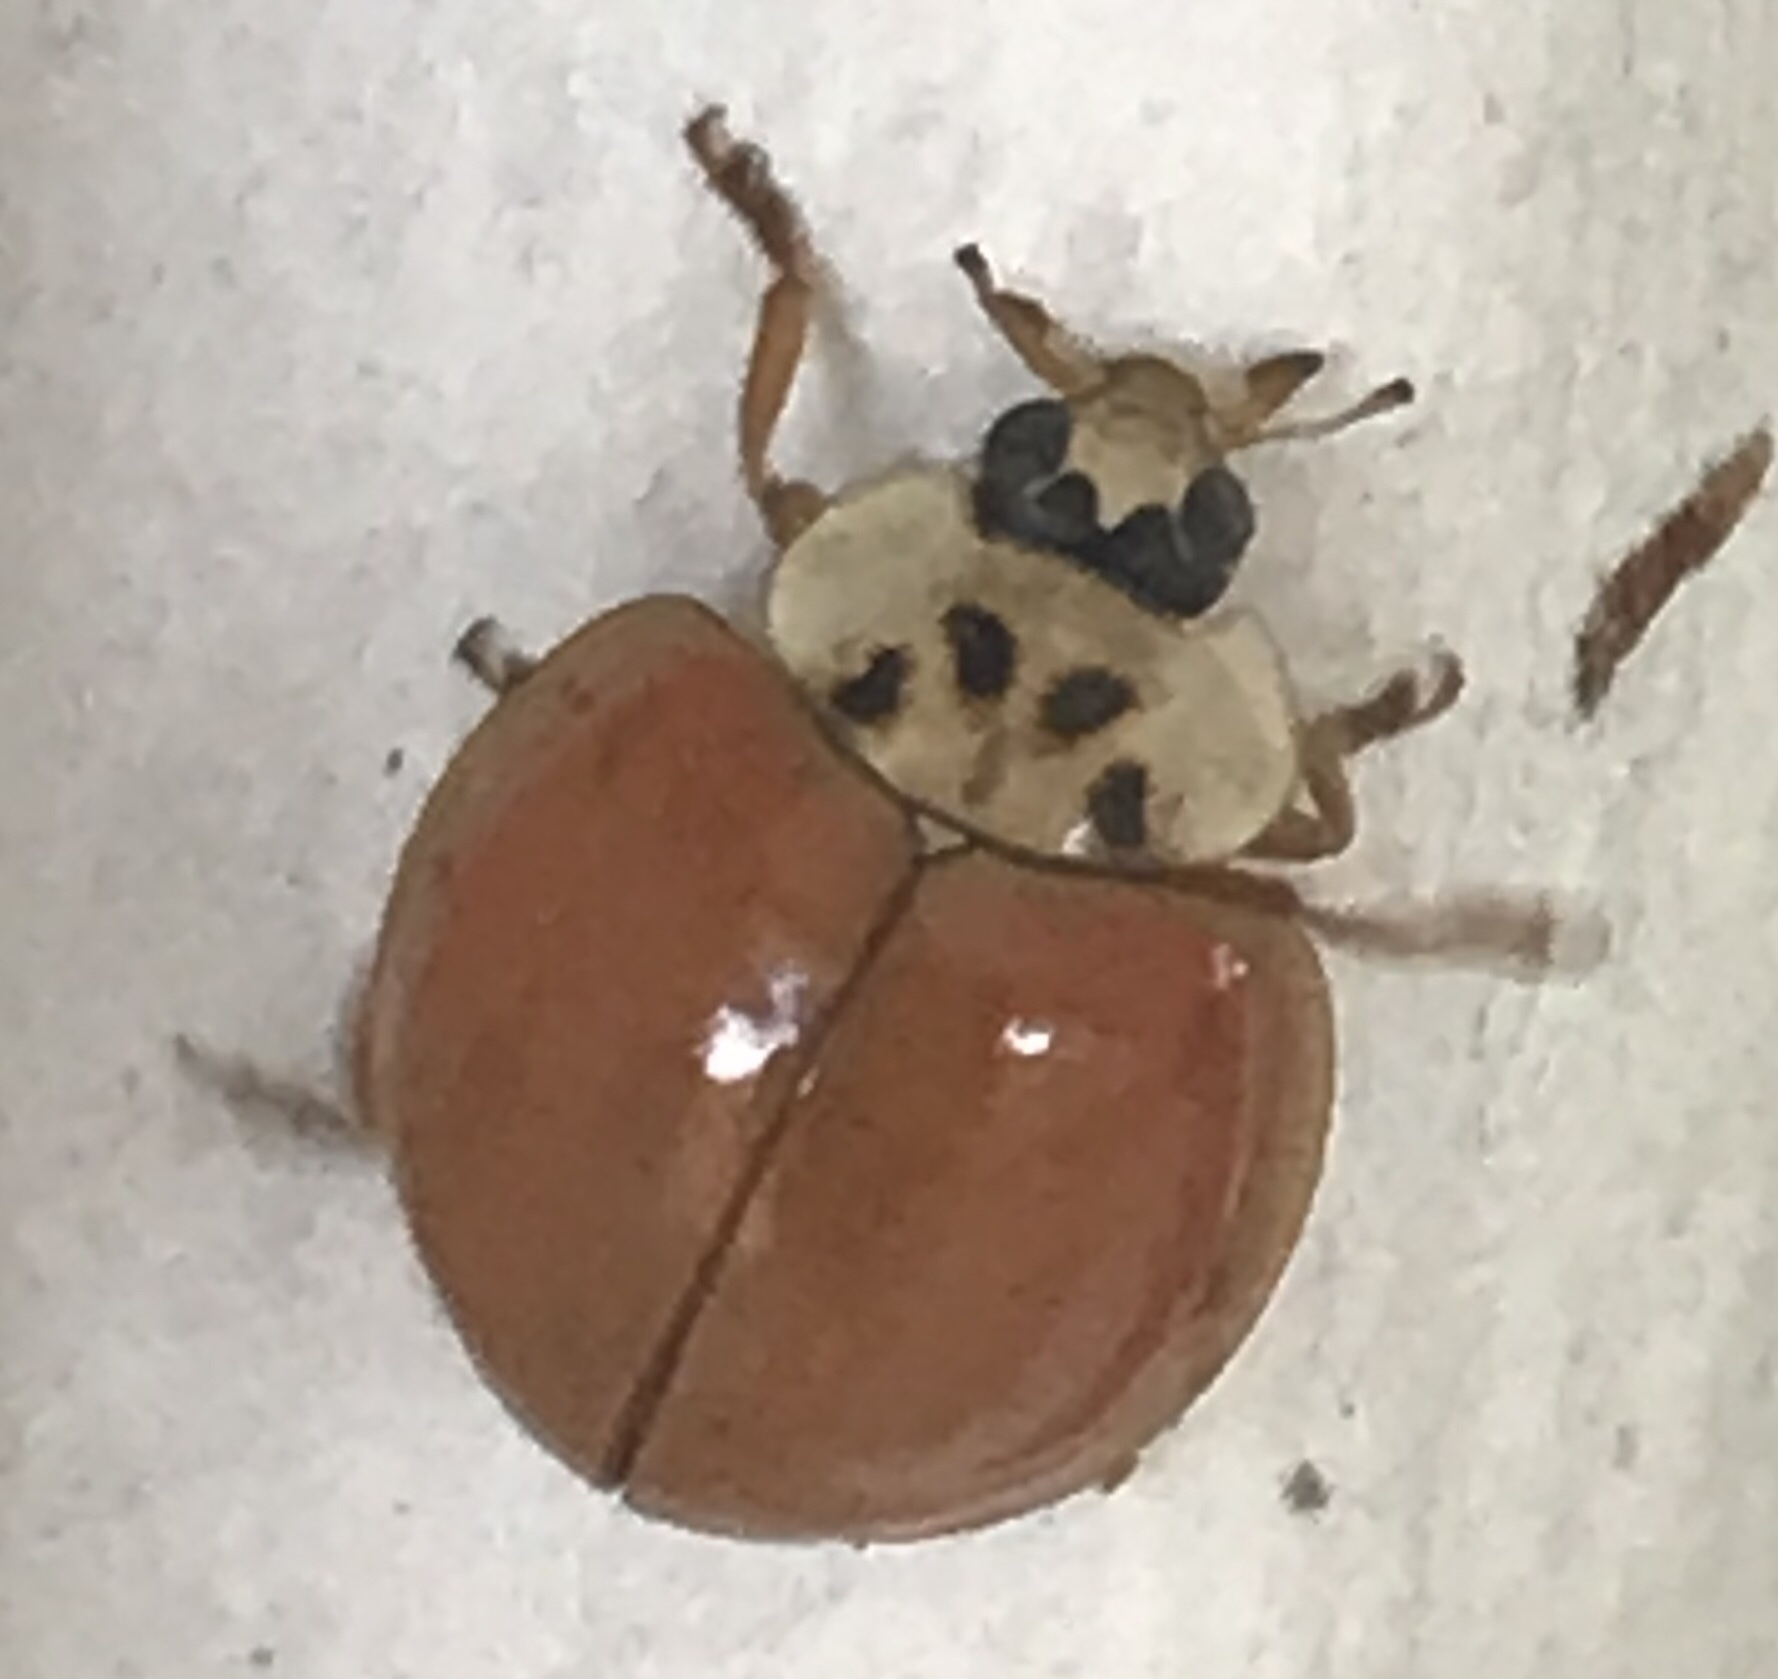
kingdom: Animalia
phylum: Arthropoda
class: Insecta
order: Coleoptera
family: Coccinellidae
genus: Harmonia
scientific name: Harmonia axyridis
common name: Harlequin ladybird
